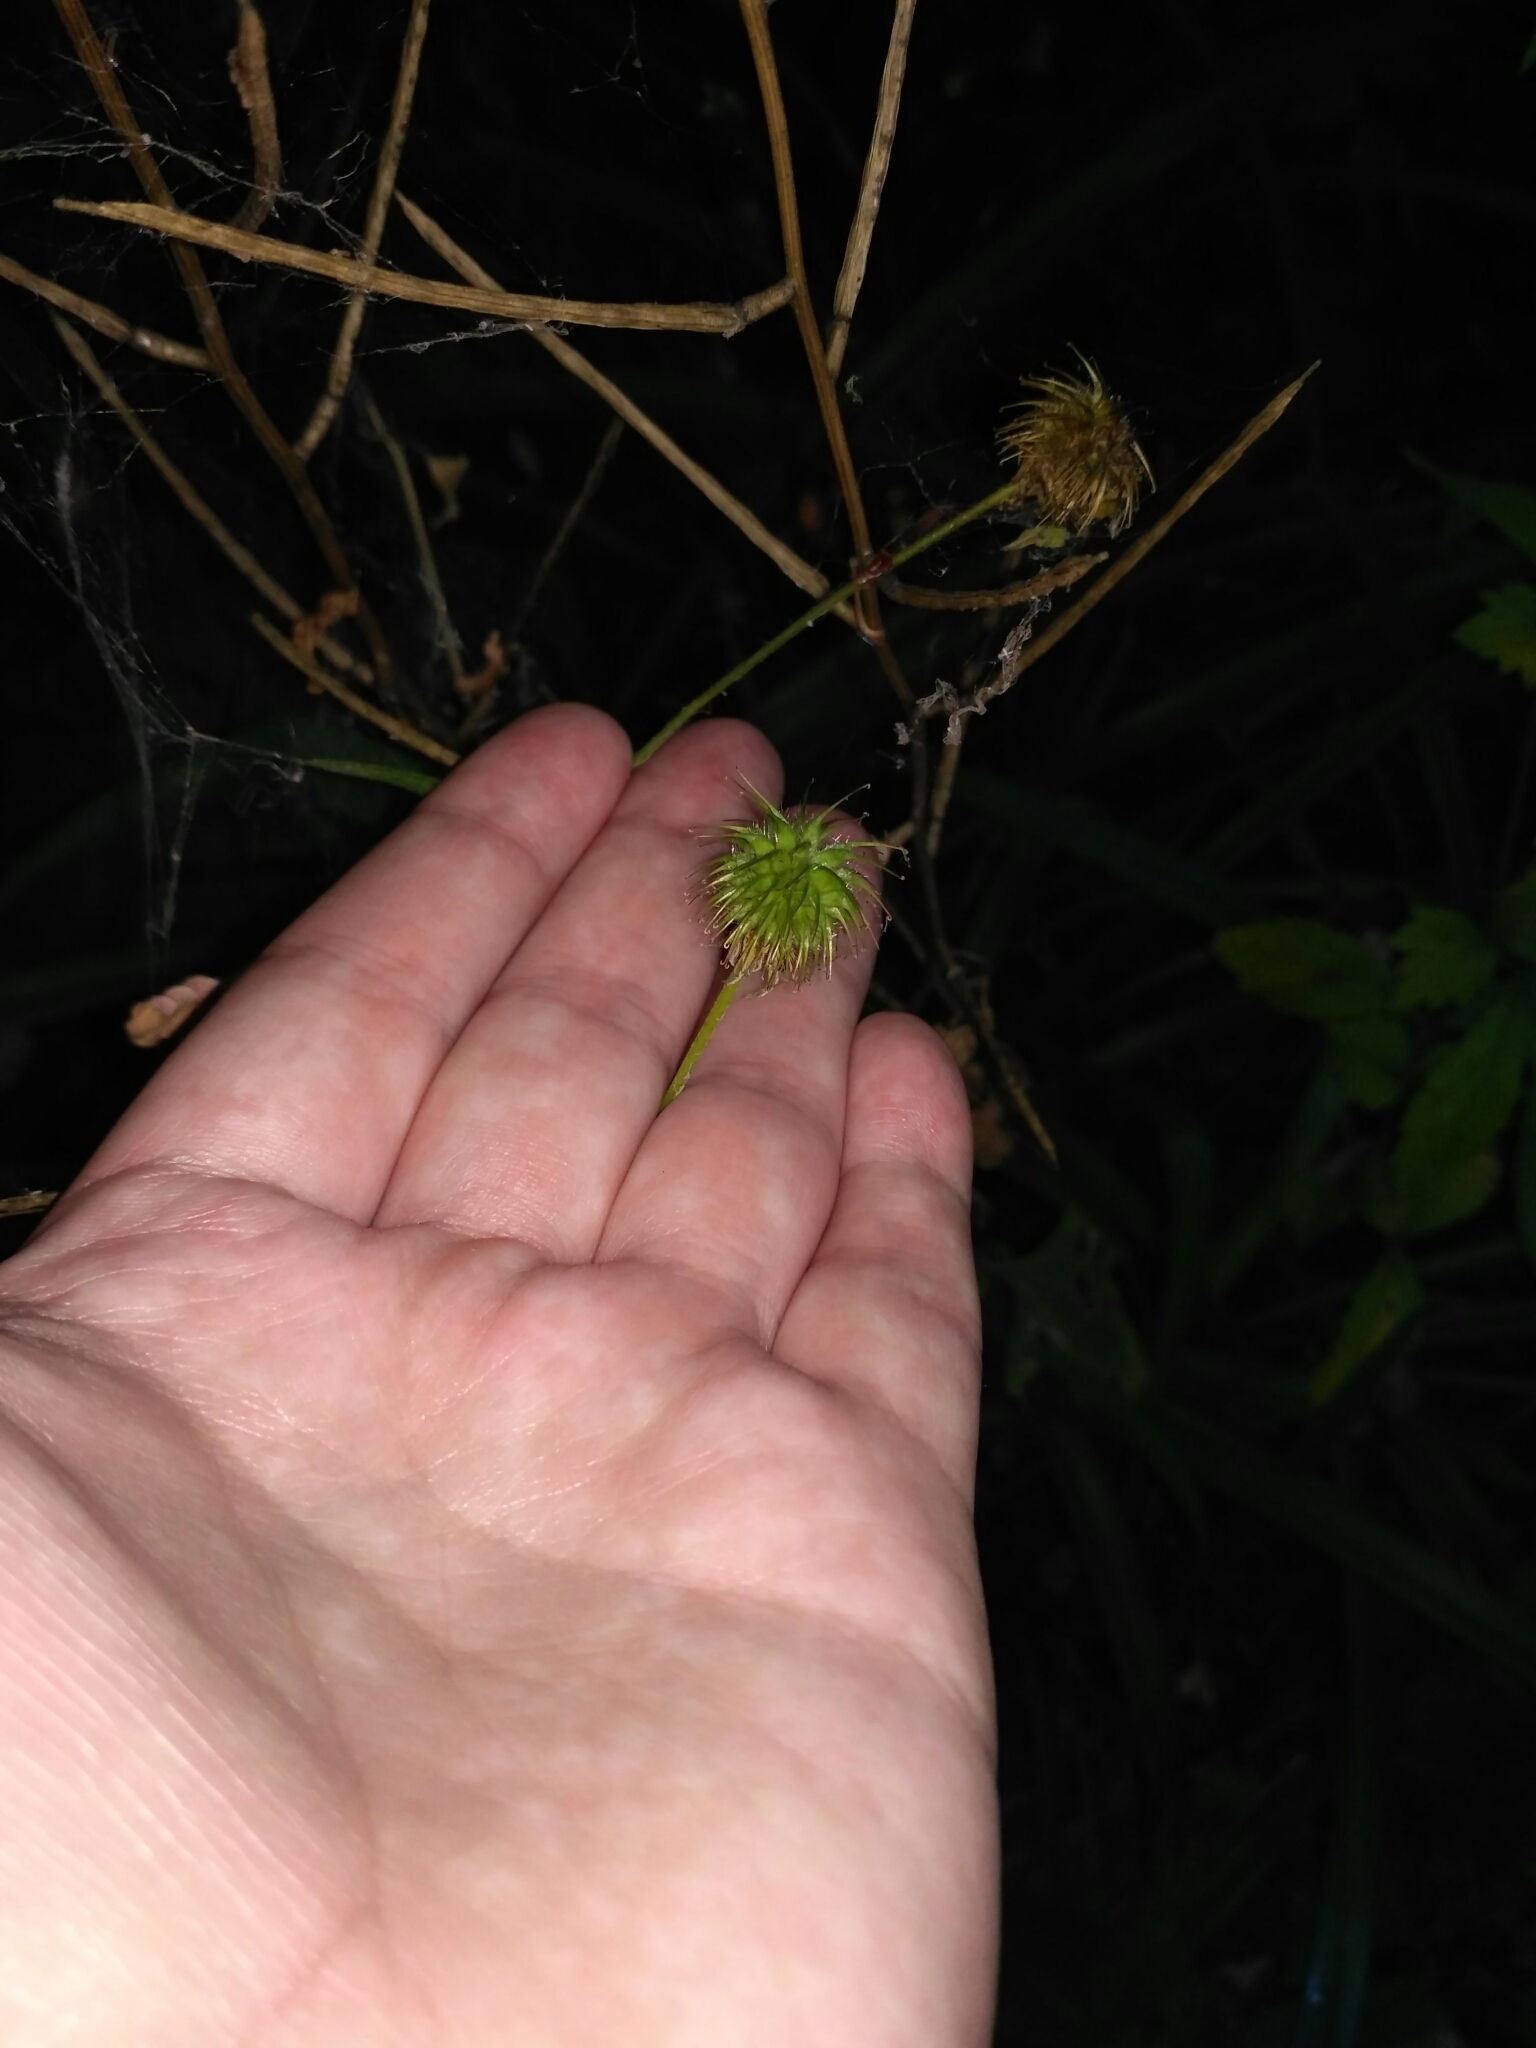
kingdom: Plantae
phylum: Tracheophyta
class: Magnoliopsida
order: Rosales
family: Rosaceae
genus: Geum
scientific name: Geum urbanum
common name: Wood avens
